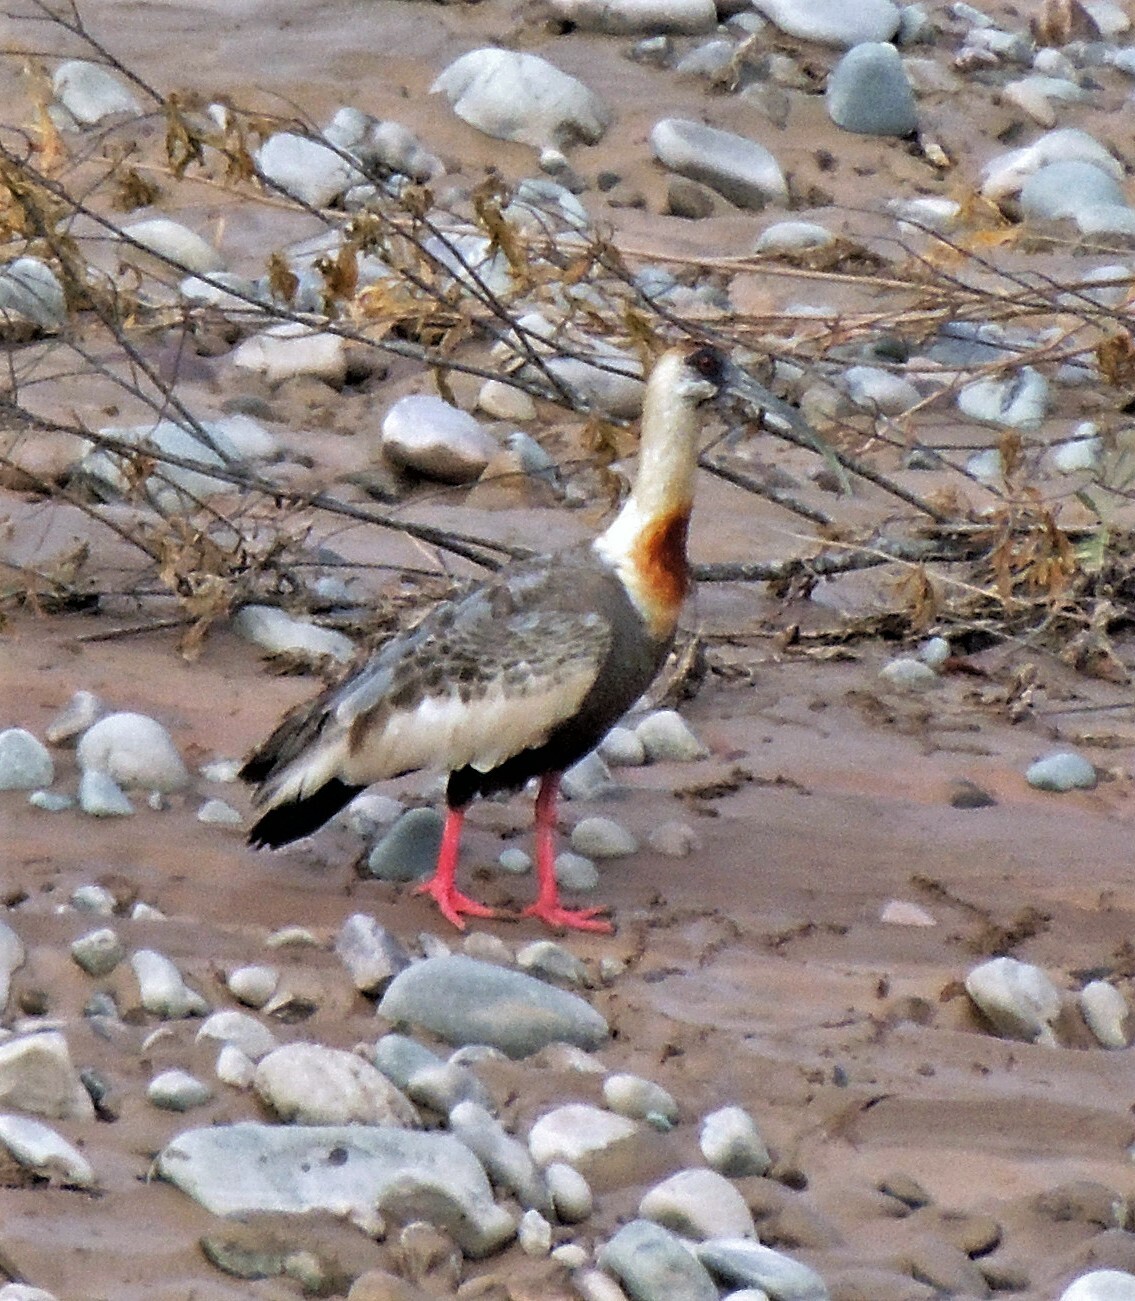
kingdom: Animalia
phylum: Chordata
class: Aves
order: Pelecaniformes
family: Threskiornithidae
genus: Theristicus
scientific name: Theristicus caudatus
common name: Buff-necked ibis
